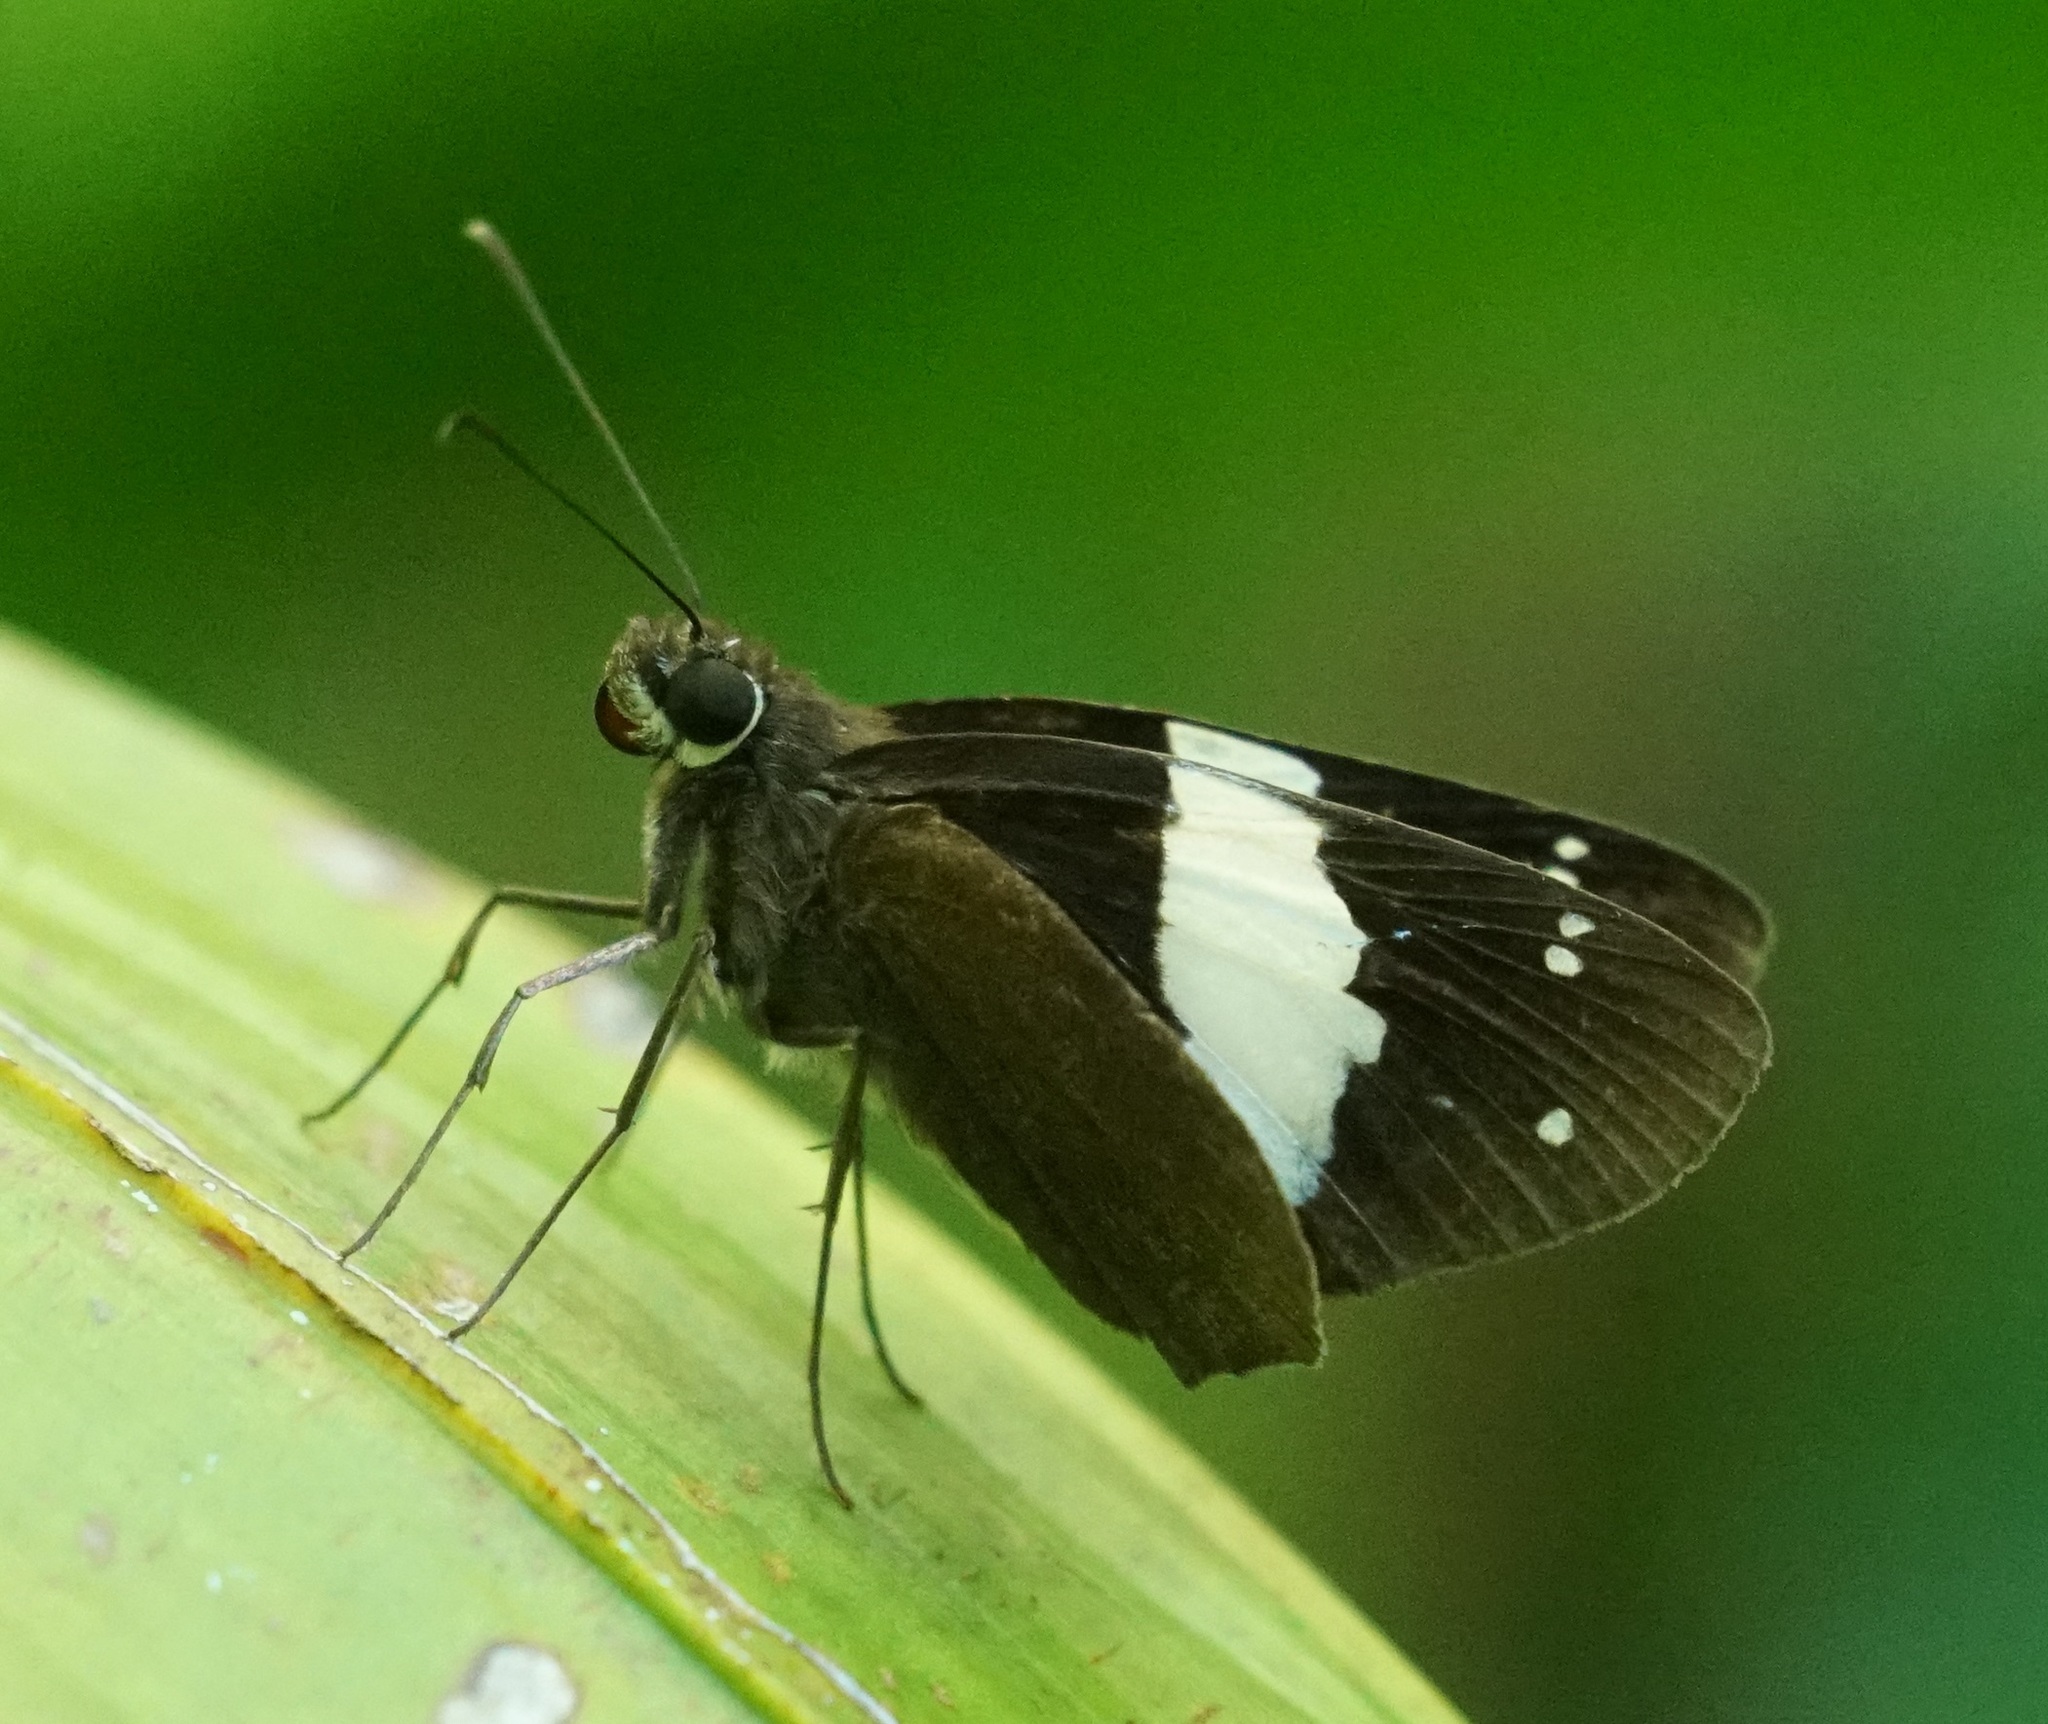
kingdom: Animalia
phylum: Arthropoda
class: Insecta
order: Lepidoptera
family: Hesperiidae
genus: Notocrypta
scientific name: Notocrypta waigensis
